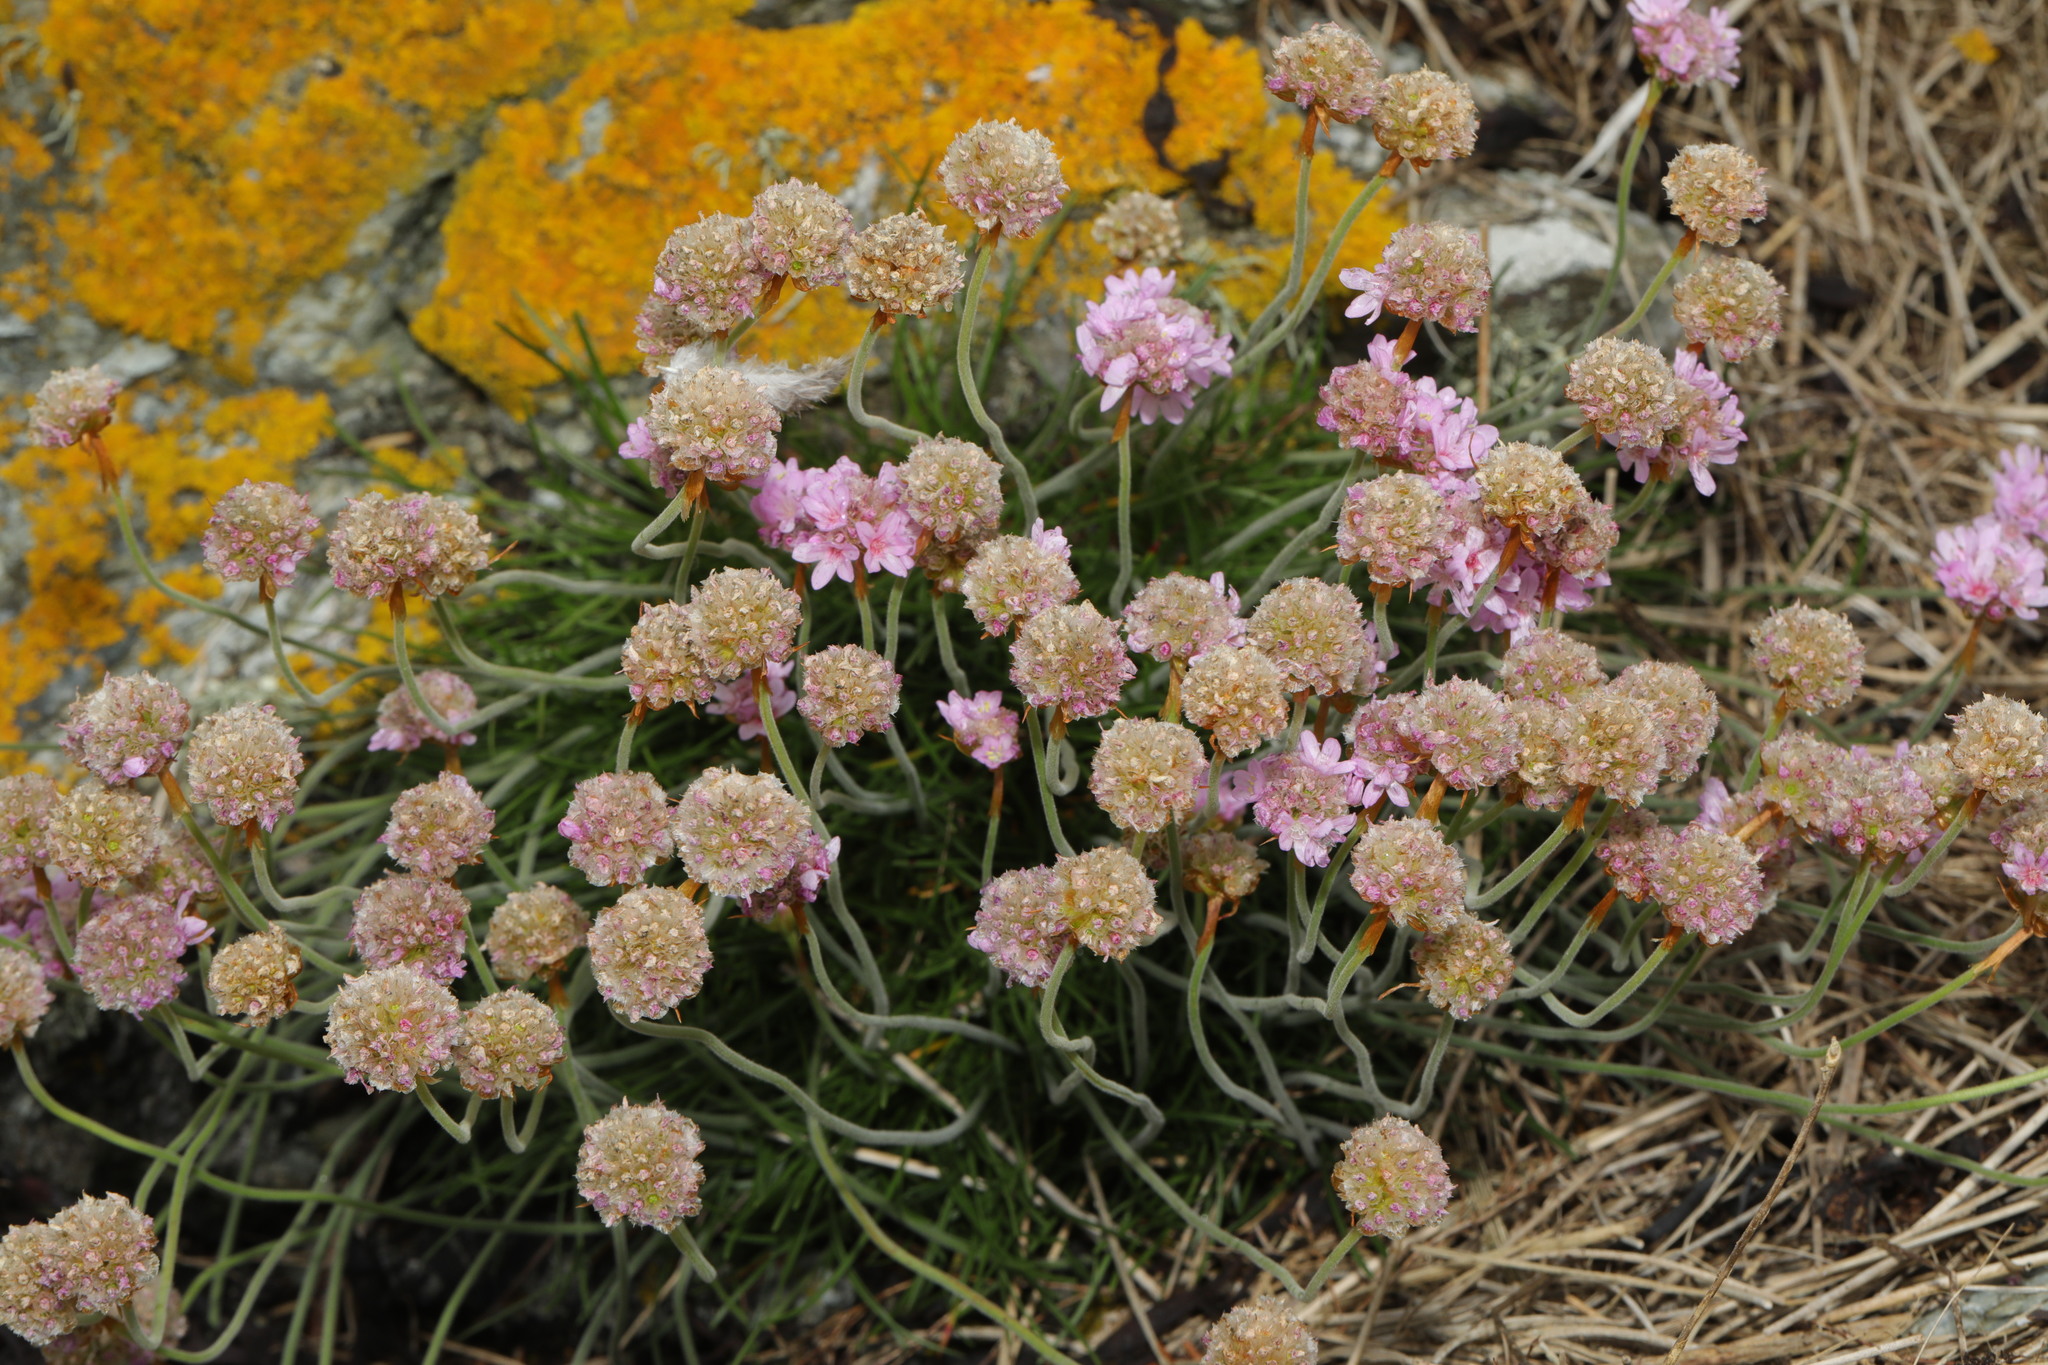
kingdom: Plantae
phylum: Tracheophyta
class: Magnoliopsida
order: Caryophyllales
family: Plumbaginaceae
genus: Armeria
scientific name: Armeria maritima
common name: Thrift
